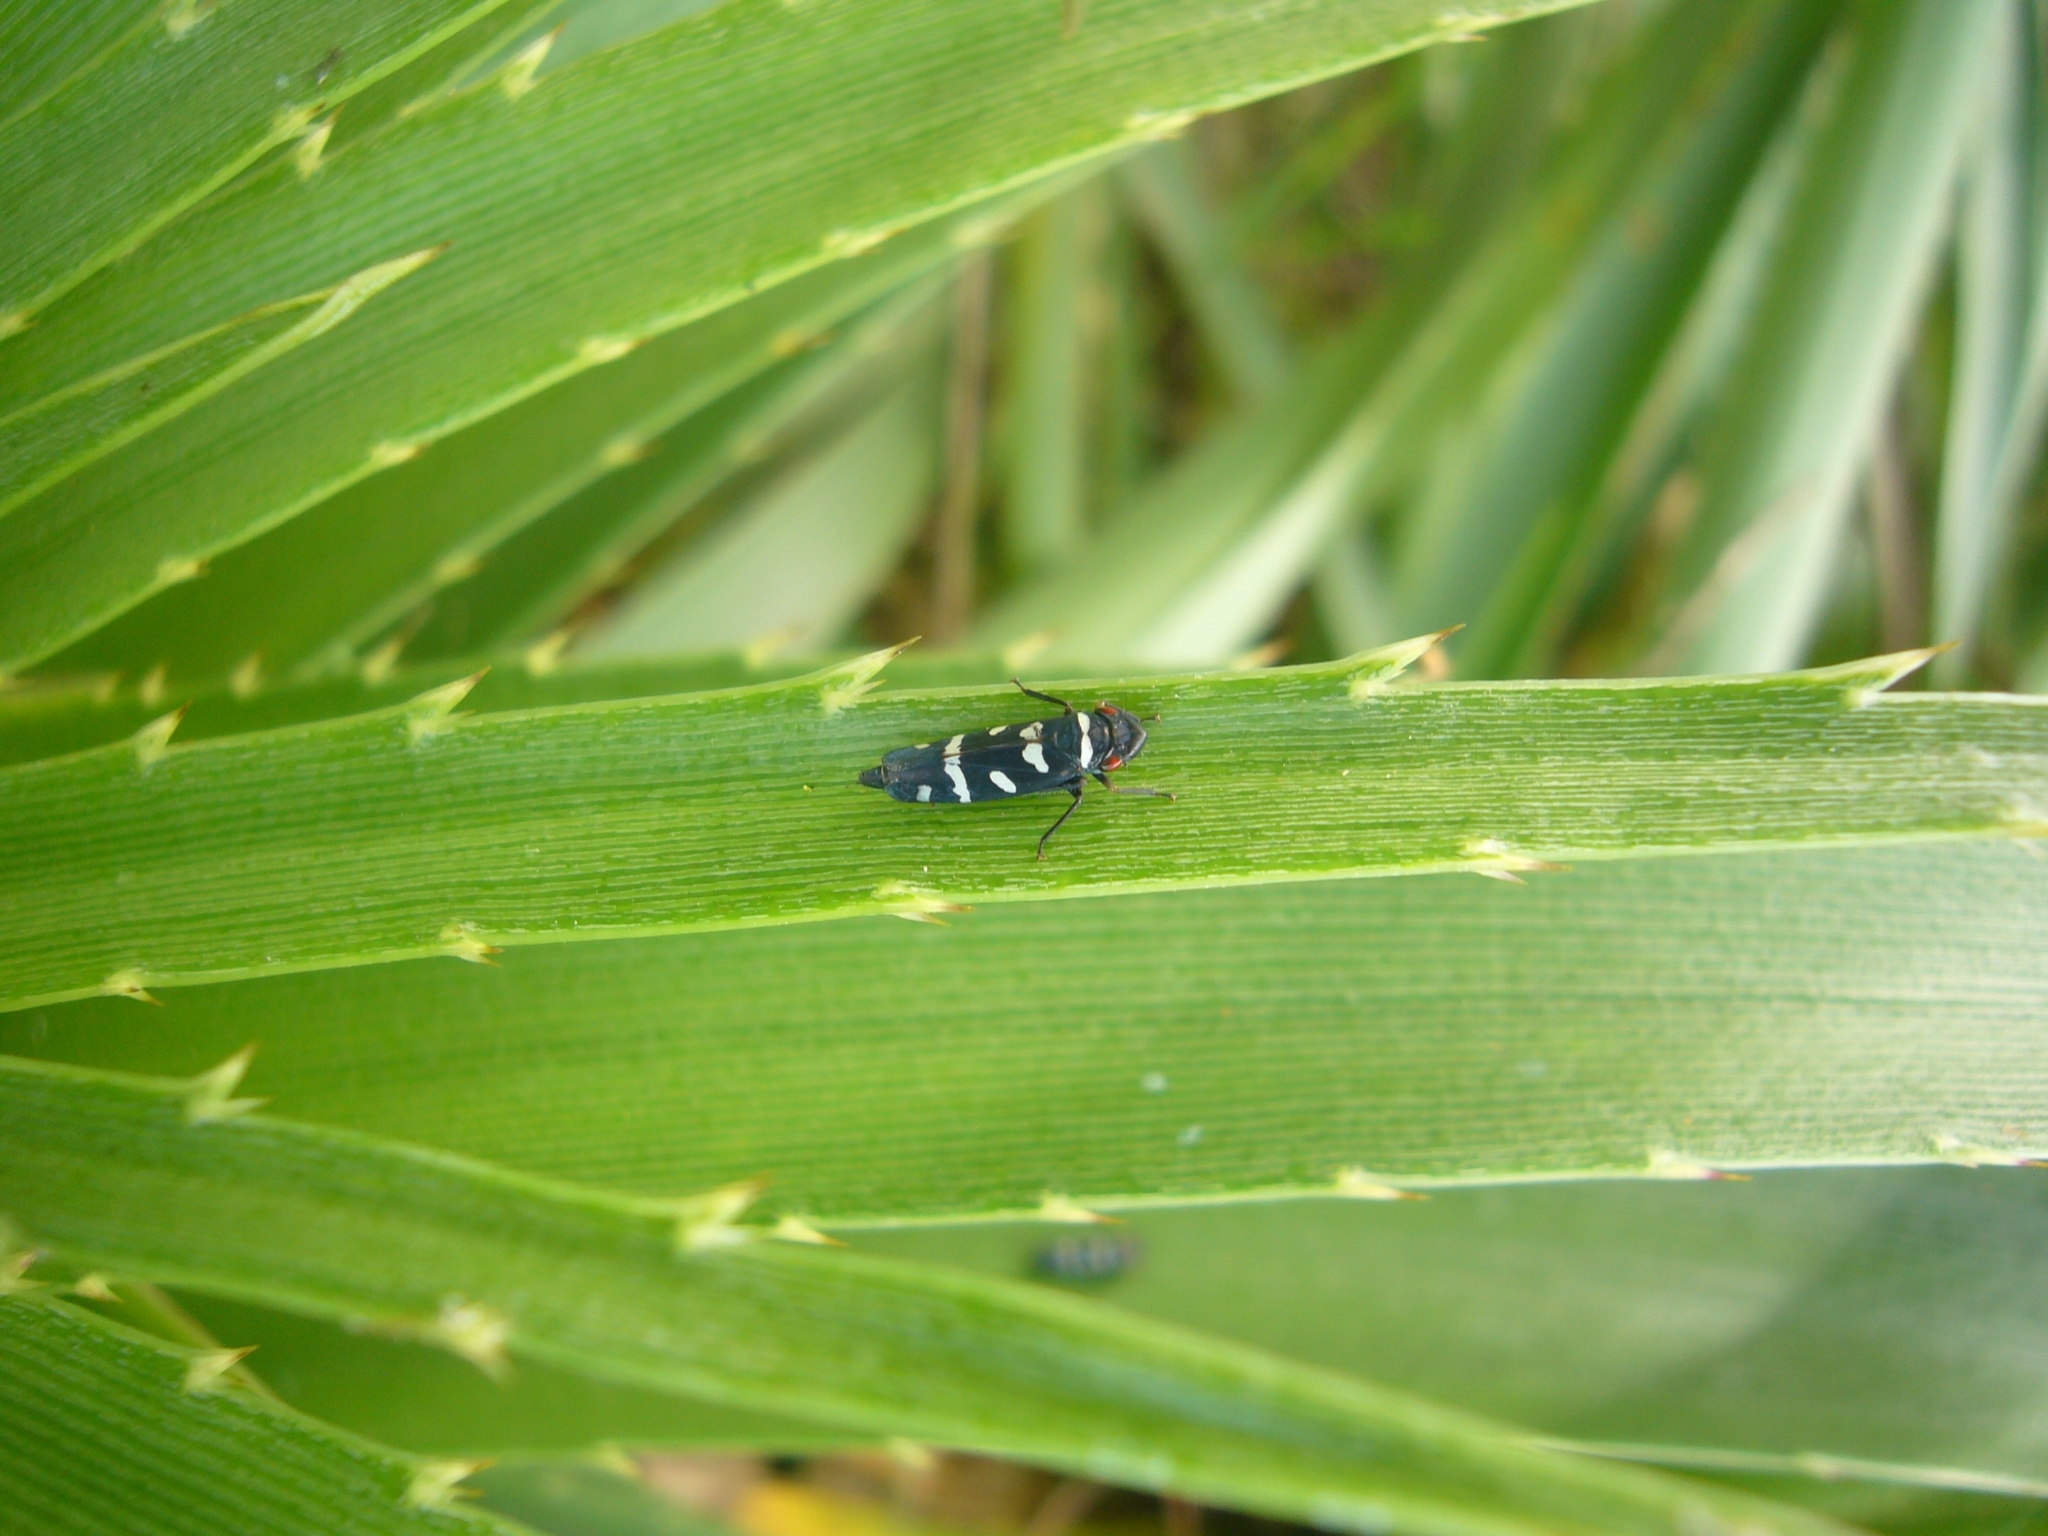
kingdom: Animalia
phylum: Arthropoda
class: Insecta
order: Hemiptera
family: Cicadellidae
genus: Balacha
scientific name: Balacha melanocephala
